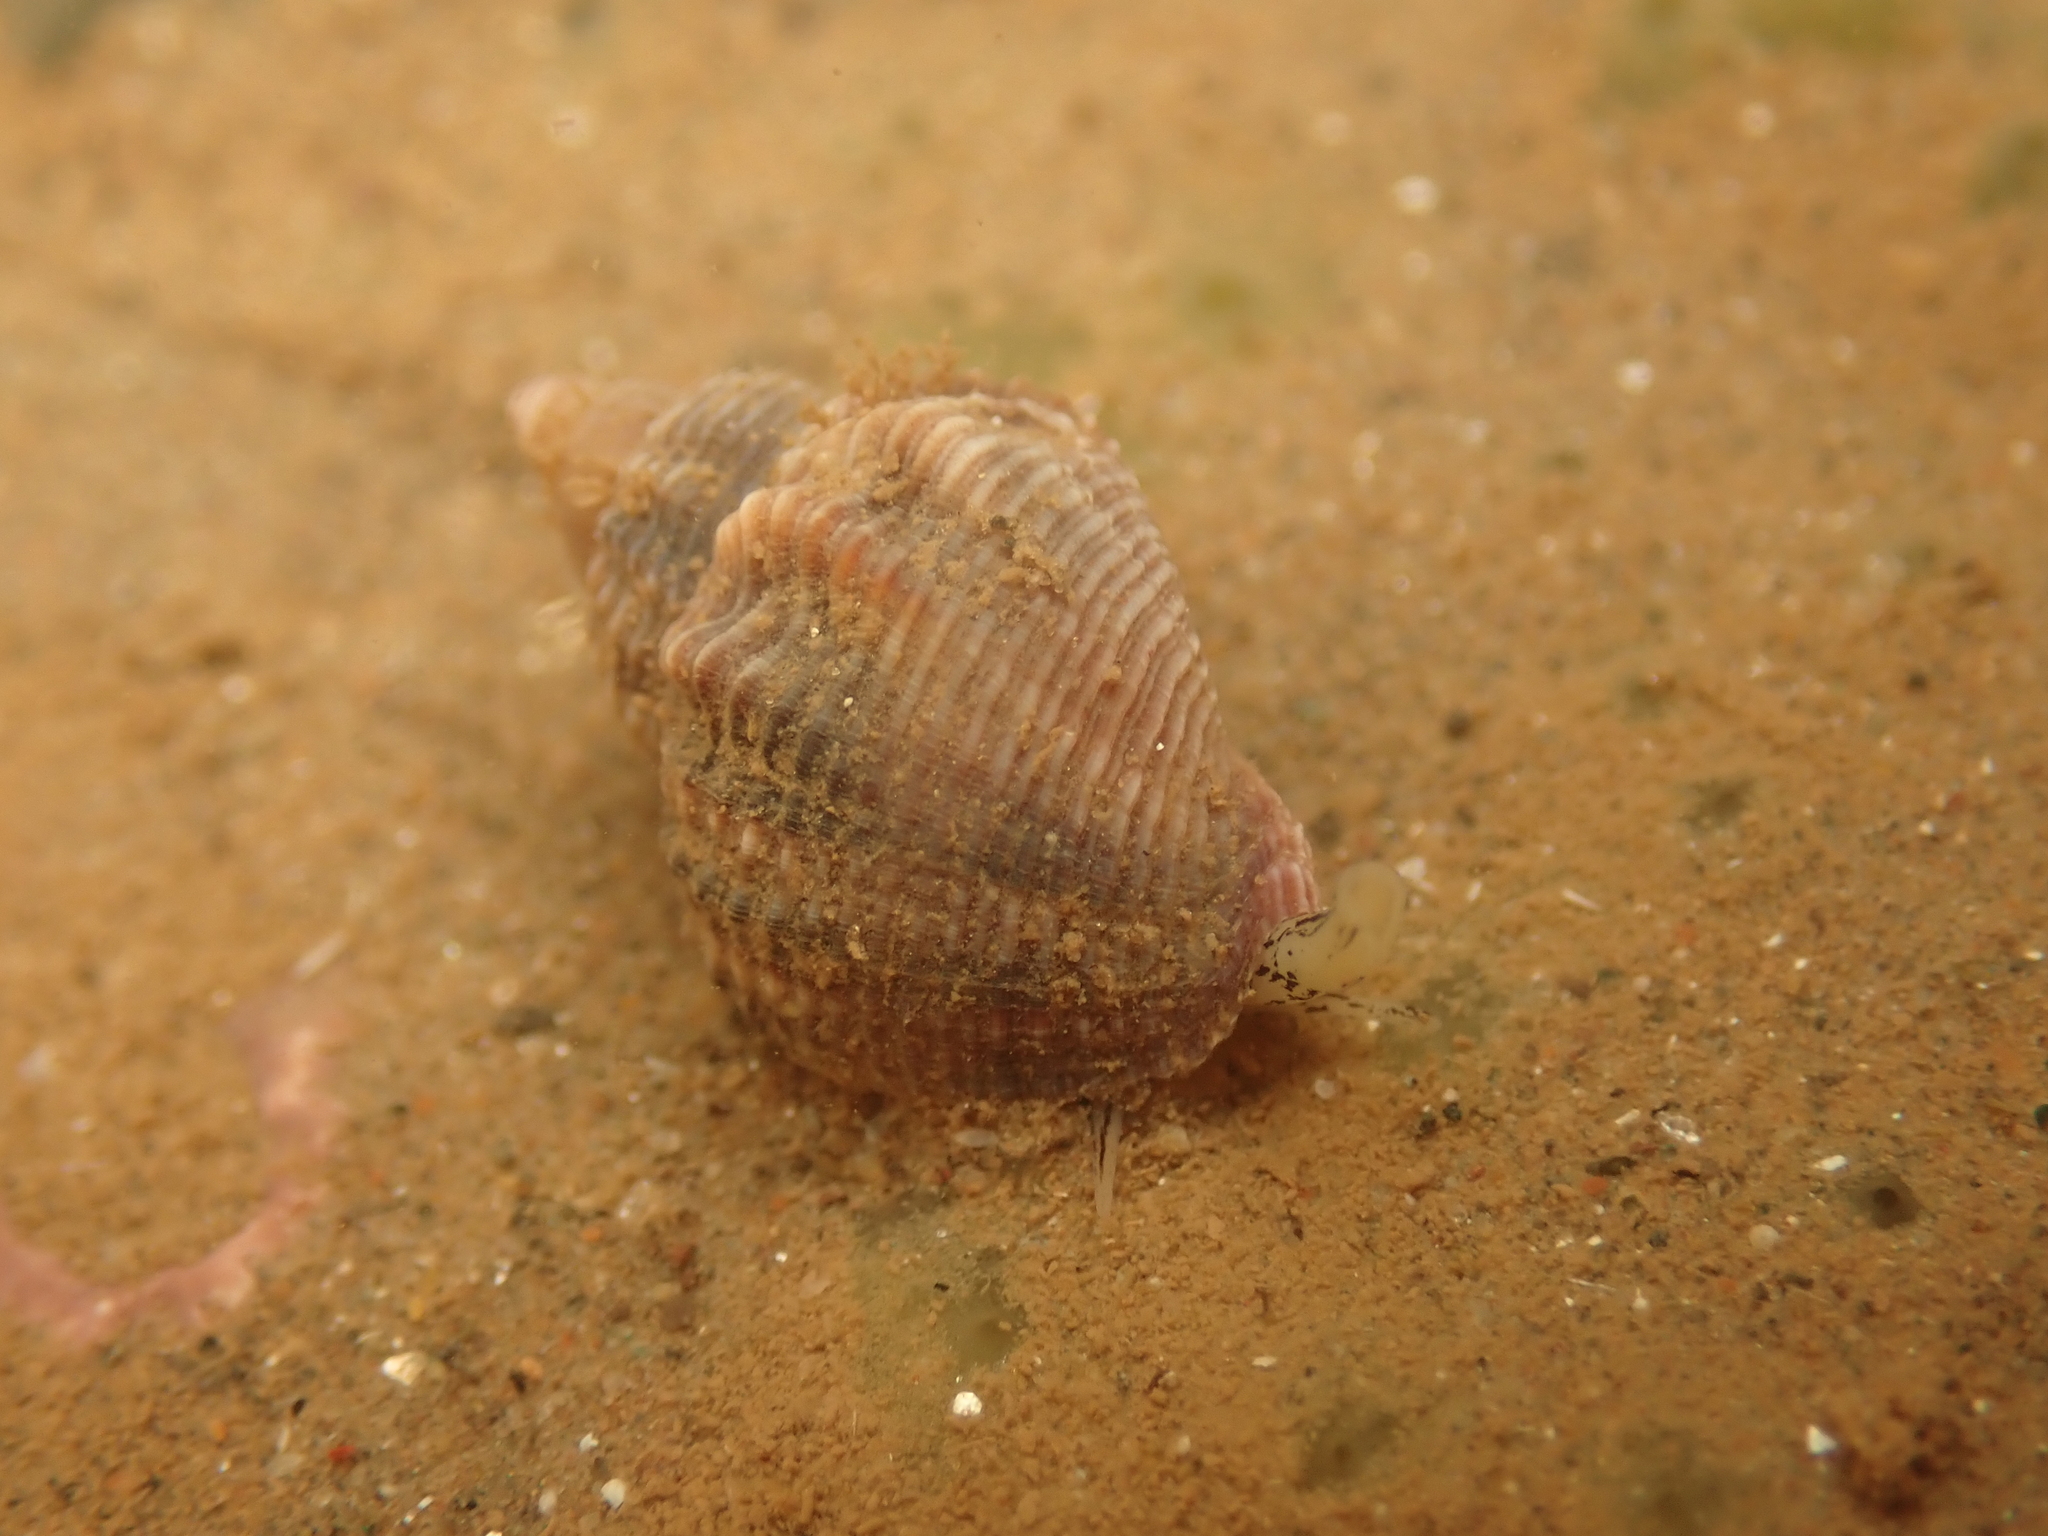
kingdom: Animalia
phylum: Mollusca
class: Gastropoda
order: Neogastropoda
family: Buccinidae
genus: Buccinum
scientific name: Buccinum undatum
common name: Common whelk
